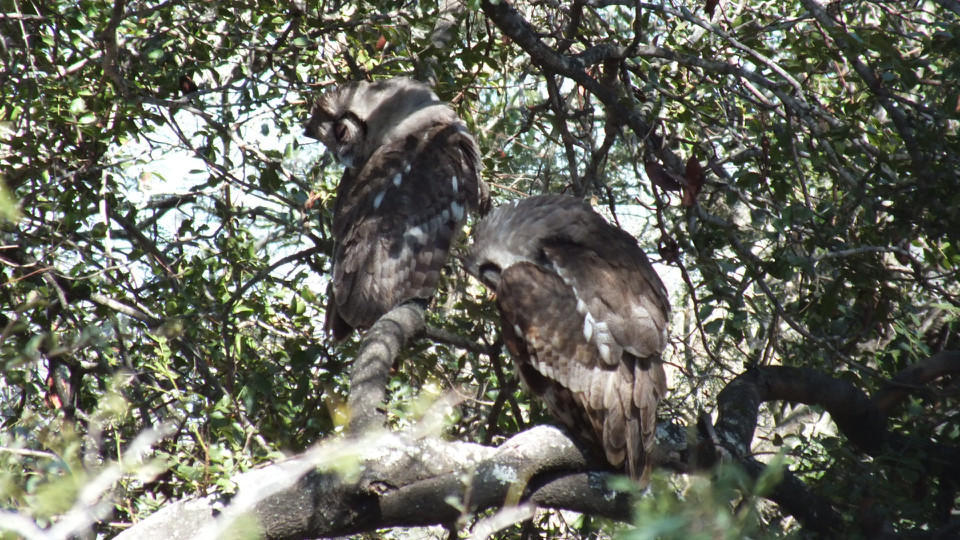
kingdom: Animalia
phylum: Chordata
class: Aves
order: Strigiformes
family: Strigidae
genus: Bubo
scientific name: Bubo lacteus
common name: Verreaux's eagle-owl
